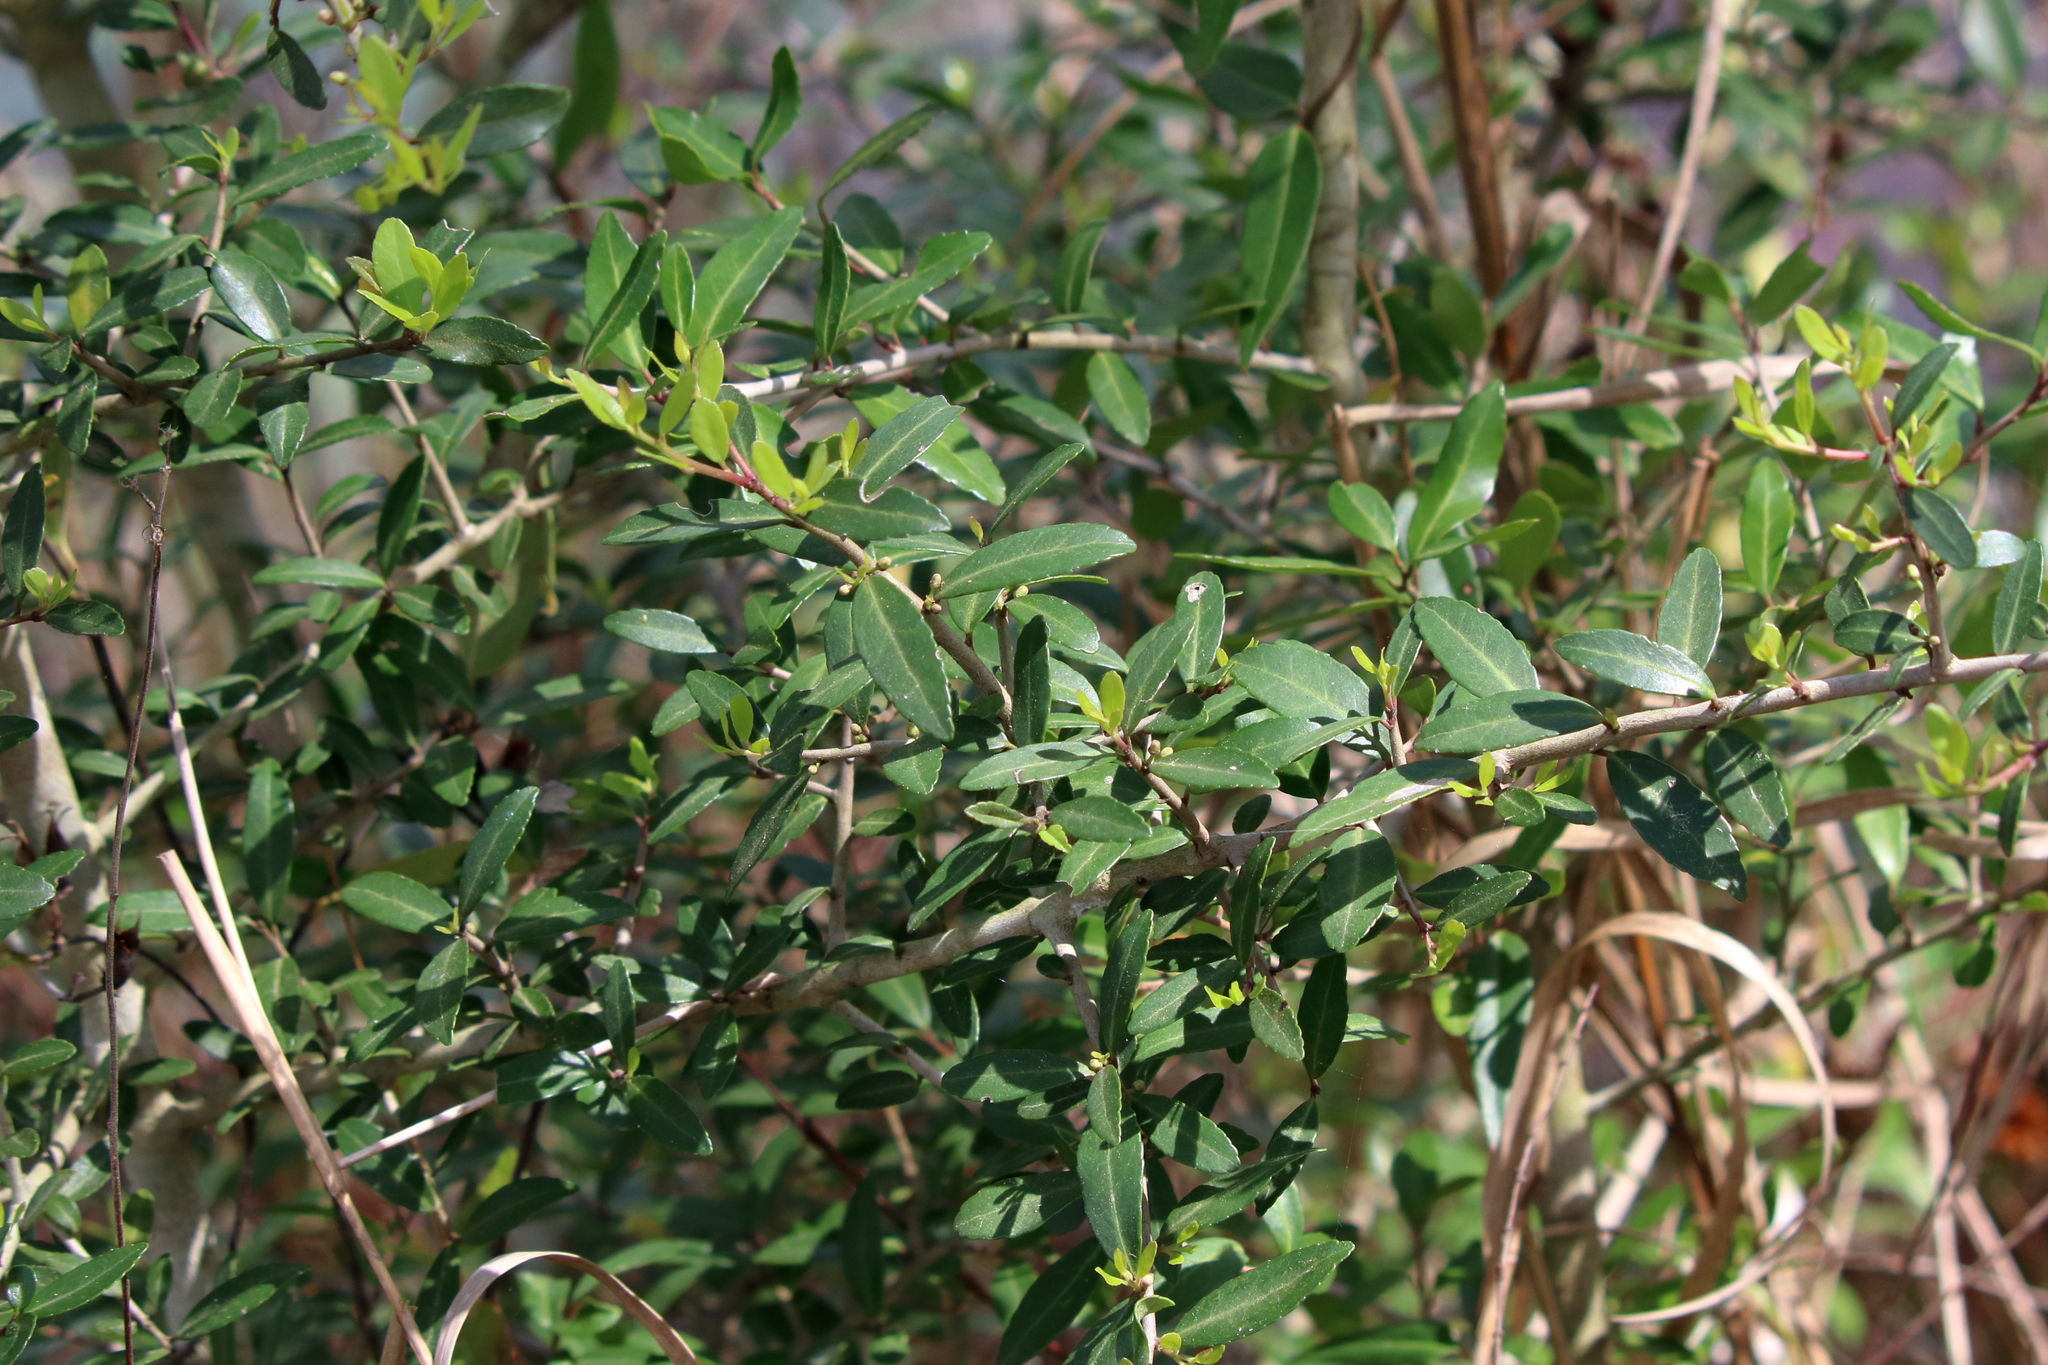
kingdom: Plantae
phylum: Tracheophyta
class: Magnoliopsida
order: Aquifoliales
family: Aquifoliaceae
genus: Ilex
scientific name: Ilex vomitoria
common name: Yaupon holly
